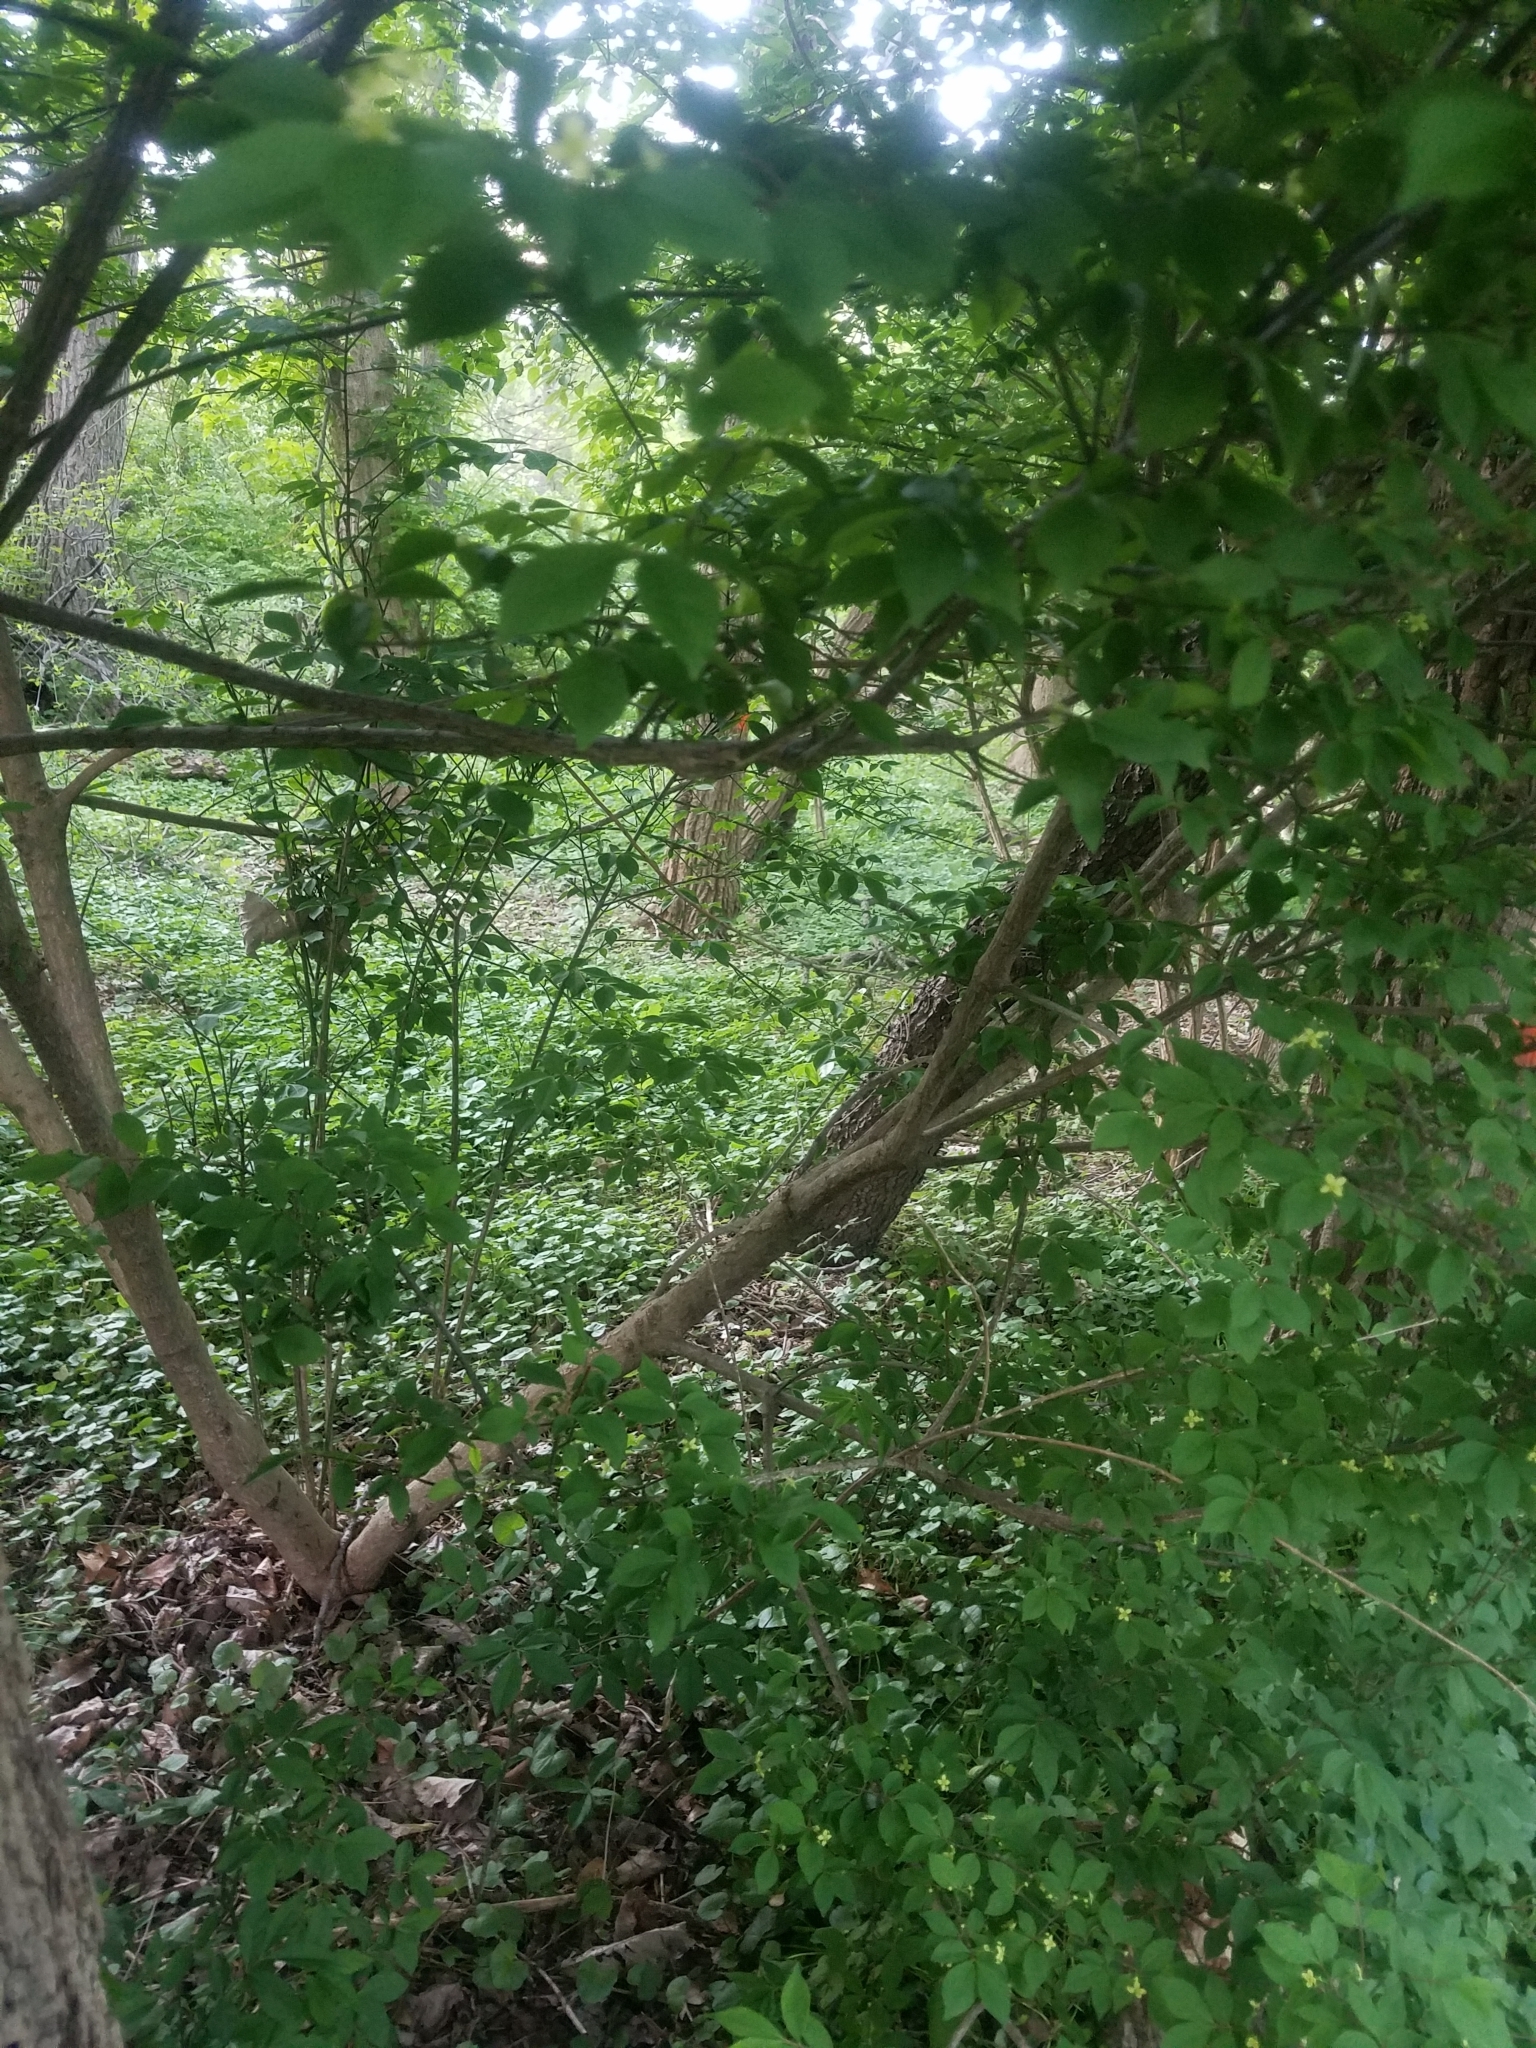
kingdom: Plantae
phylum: Tracheophyta
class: Magnoliopsida
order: Celastrales
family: Celastraceae
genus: Euonymus
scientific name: Euonymus alatus
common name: Winged euonymus
